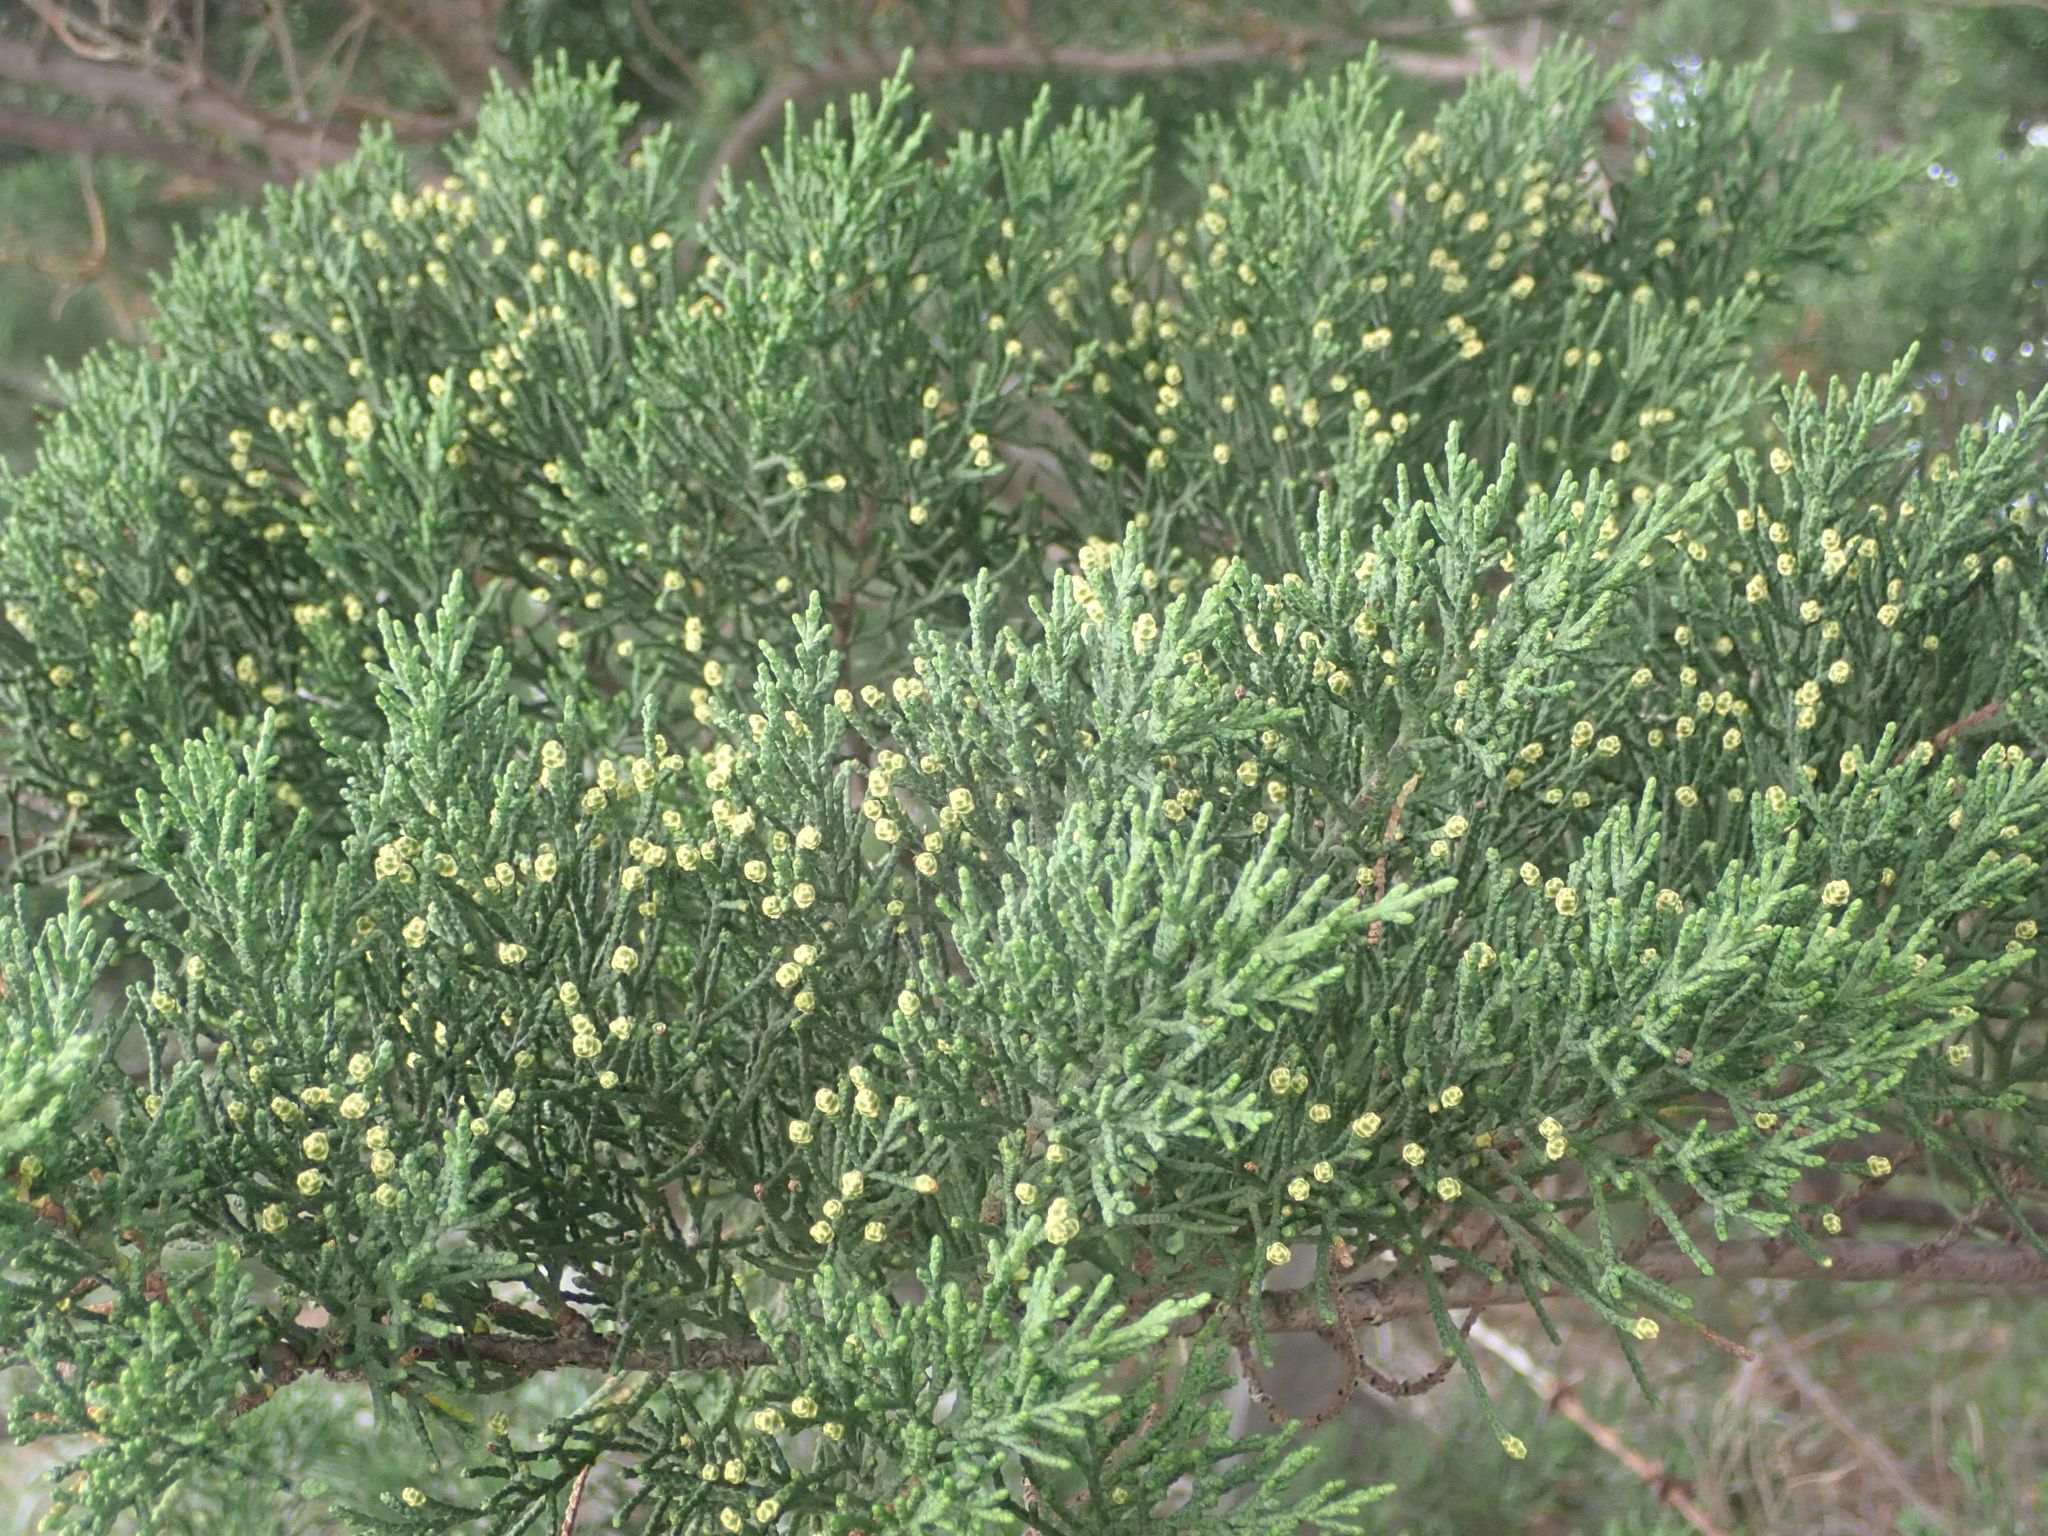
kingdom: Plantae
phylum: Tracheophyta
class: Pinopsida
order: Pinales
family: Cupressaceae
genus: Cupressus
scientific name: Cupressus macrocarpa
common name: Monterey cypress
